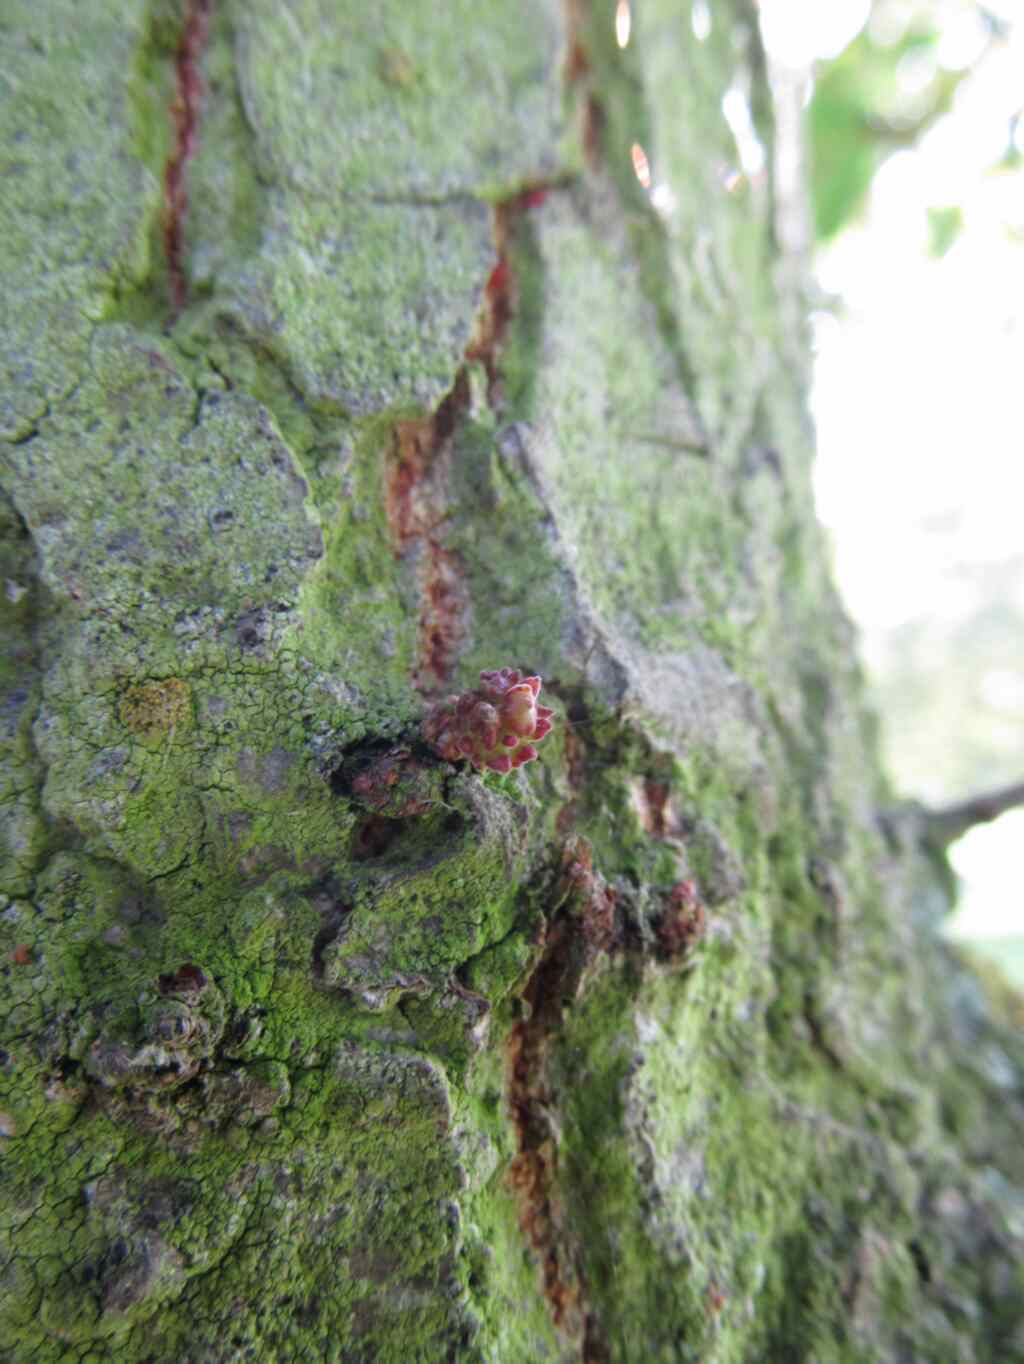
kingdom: Animalia
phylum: Arthropoda
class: Insecta
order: Hymenoptera
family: Cynipidae
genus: Andricus
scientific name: Andricus gemmeus
